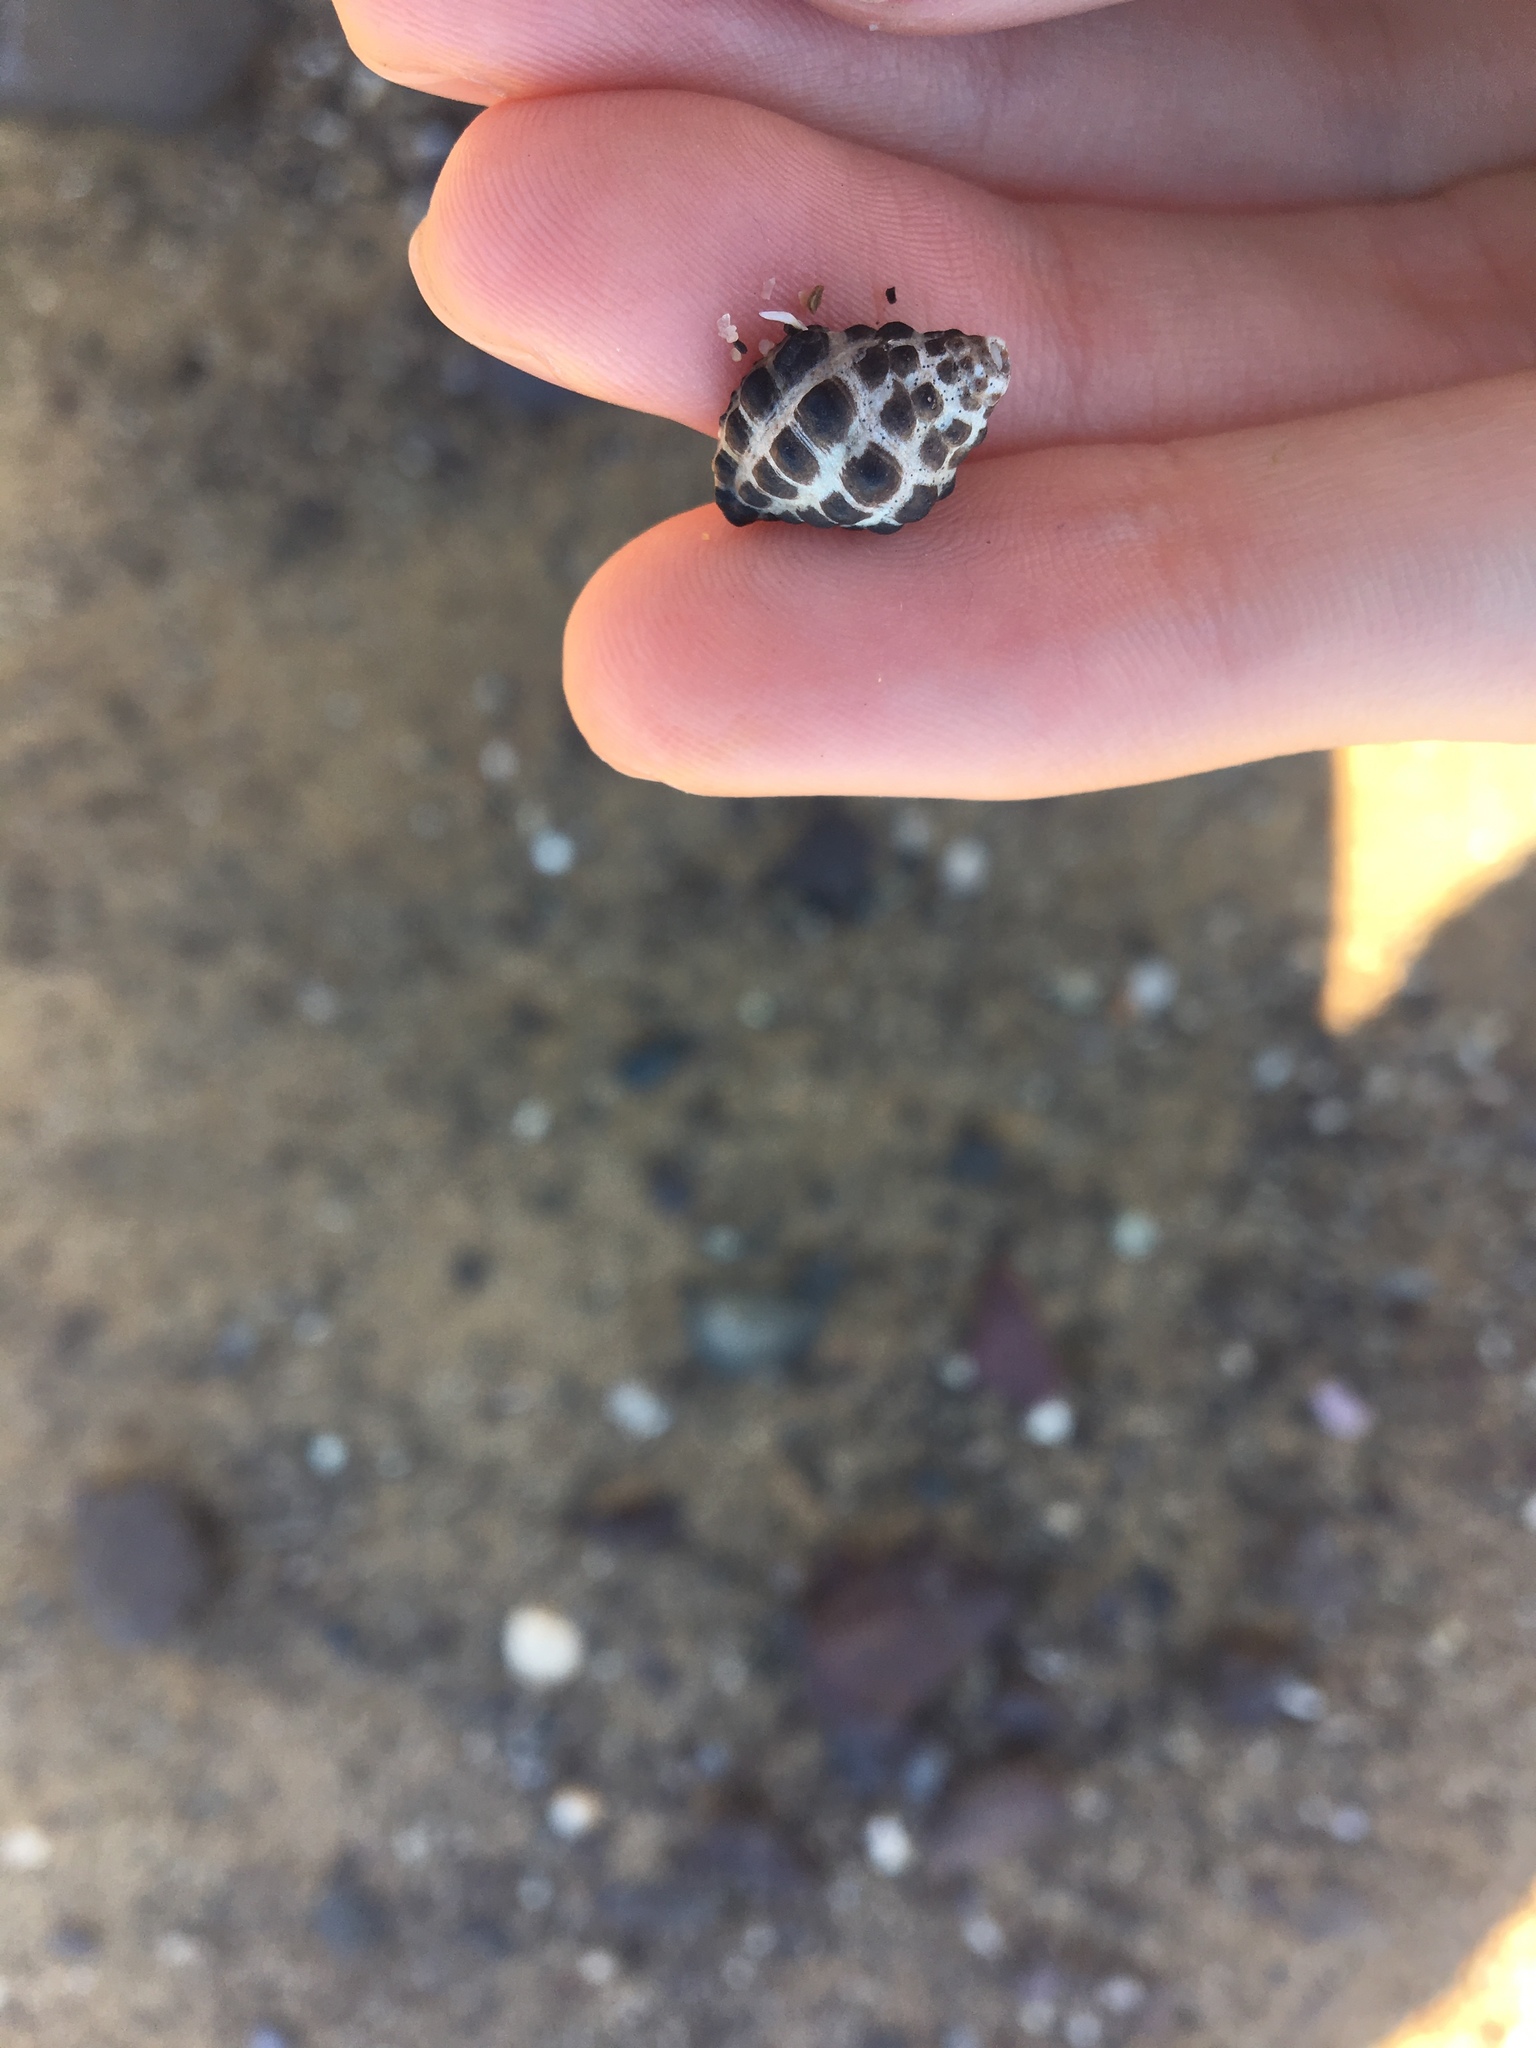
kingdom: Animalia
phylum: Mollusca
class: Gastropoda
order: Neogastropoda
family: Muricidae
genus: Tenguella
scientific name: Tenguella marginalba
